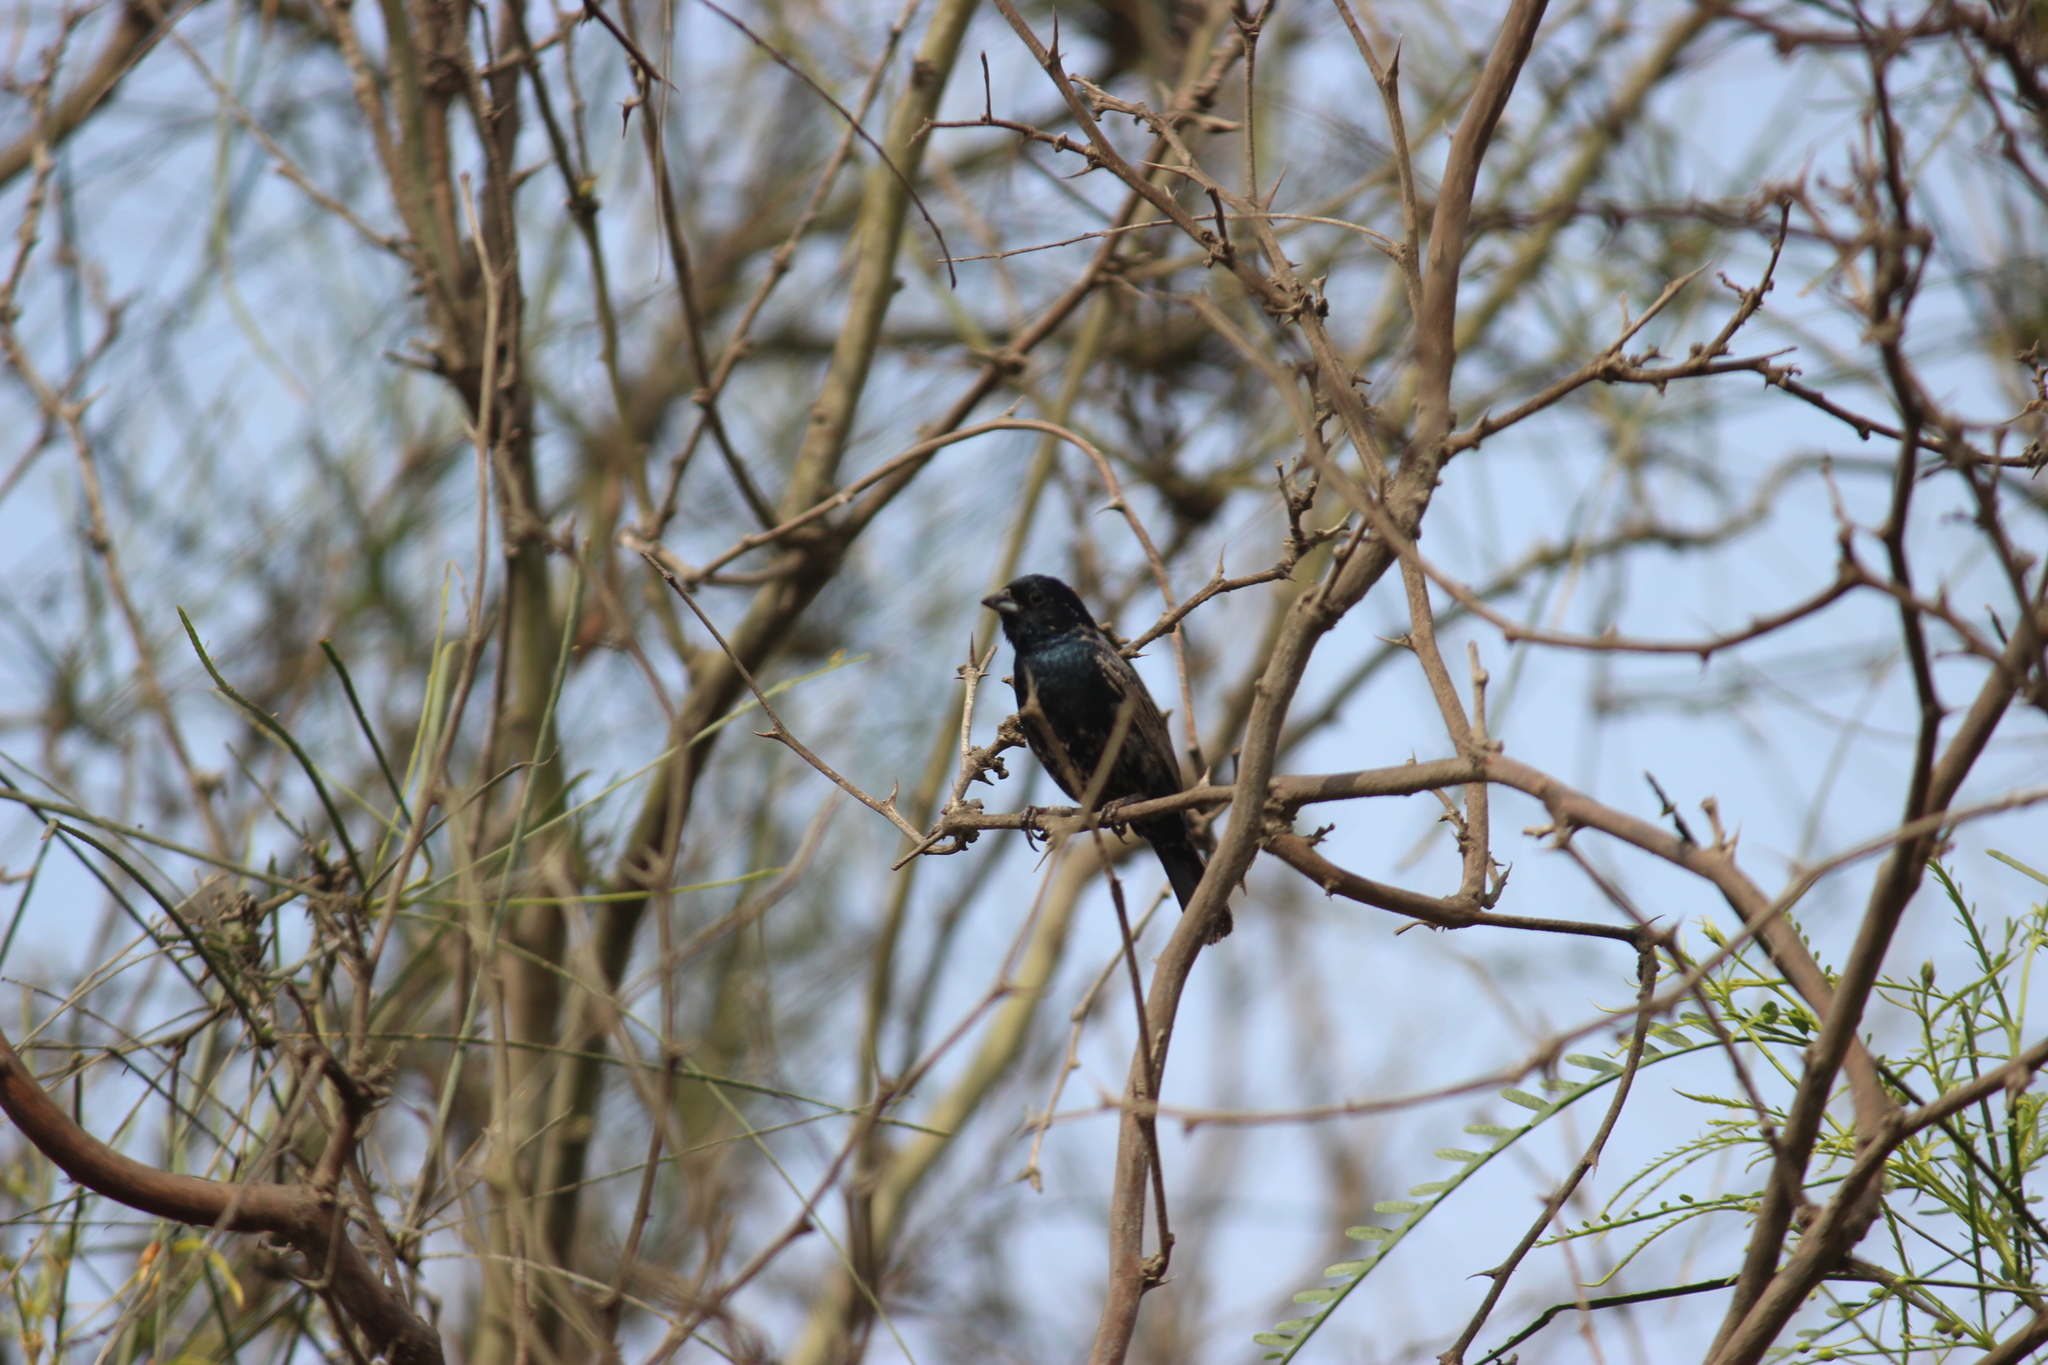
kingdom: Animalia
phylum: Chordata
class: Aves
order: Passeriformes
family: Thraupidae
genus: Volatinia
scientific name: Volatinia jacarina
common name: Blue-black grassquit
